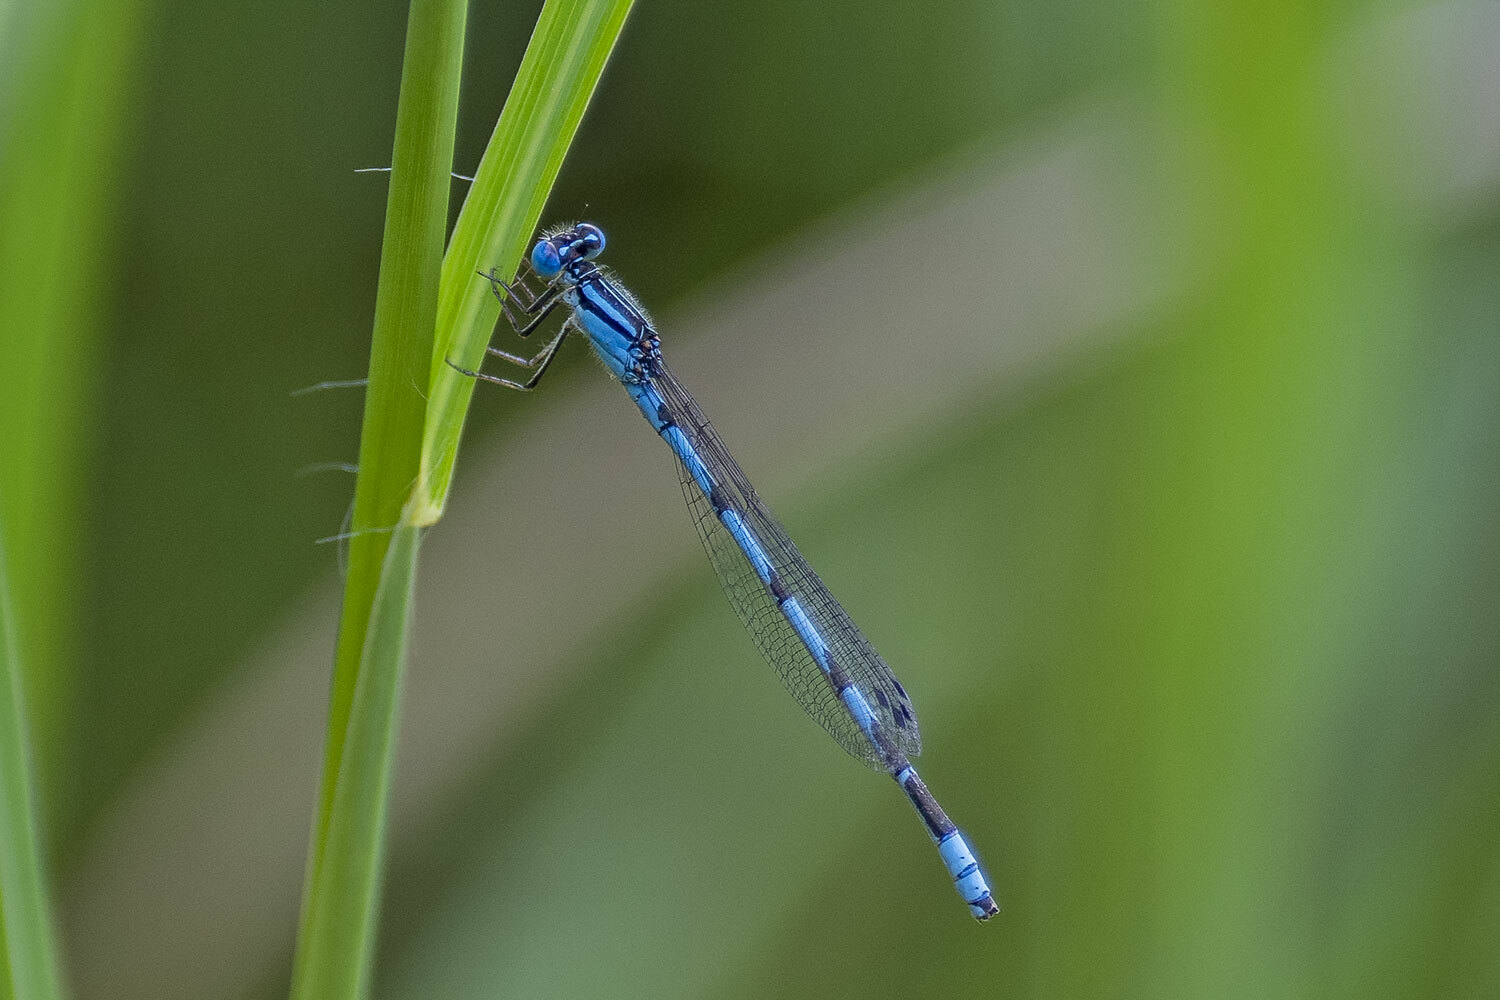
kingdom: Animalia
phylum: Arthropoda
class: Insecta
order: Odonata
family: Coenagrionidae
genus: Enallagma
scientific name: Enallagma durum
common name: Big bluet
